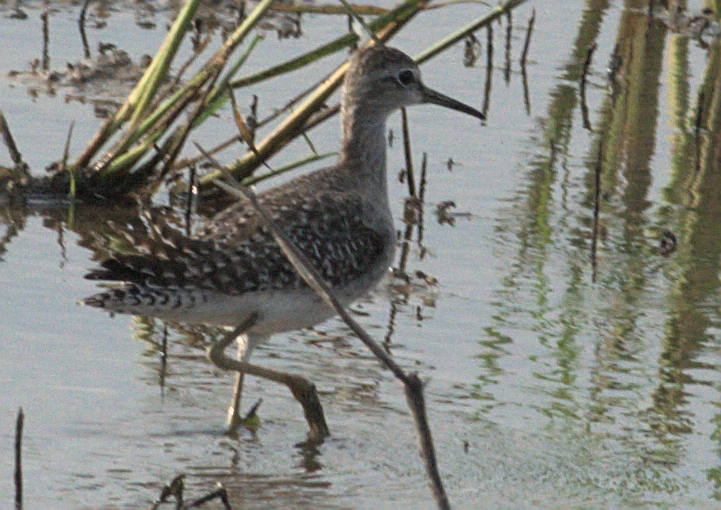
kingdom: Animalia
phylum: Chordata
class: Aves
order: Charadriiformes
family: Scolopacidae
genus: Tringa
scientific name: Tringa glareola
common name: Wood sandpiper
